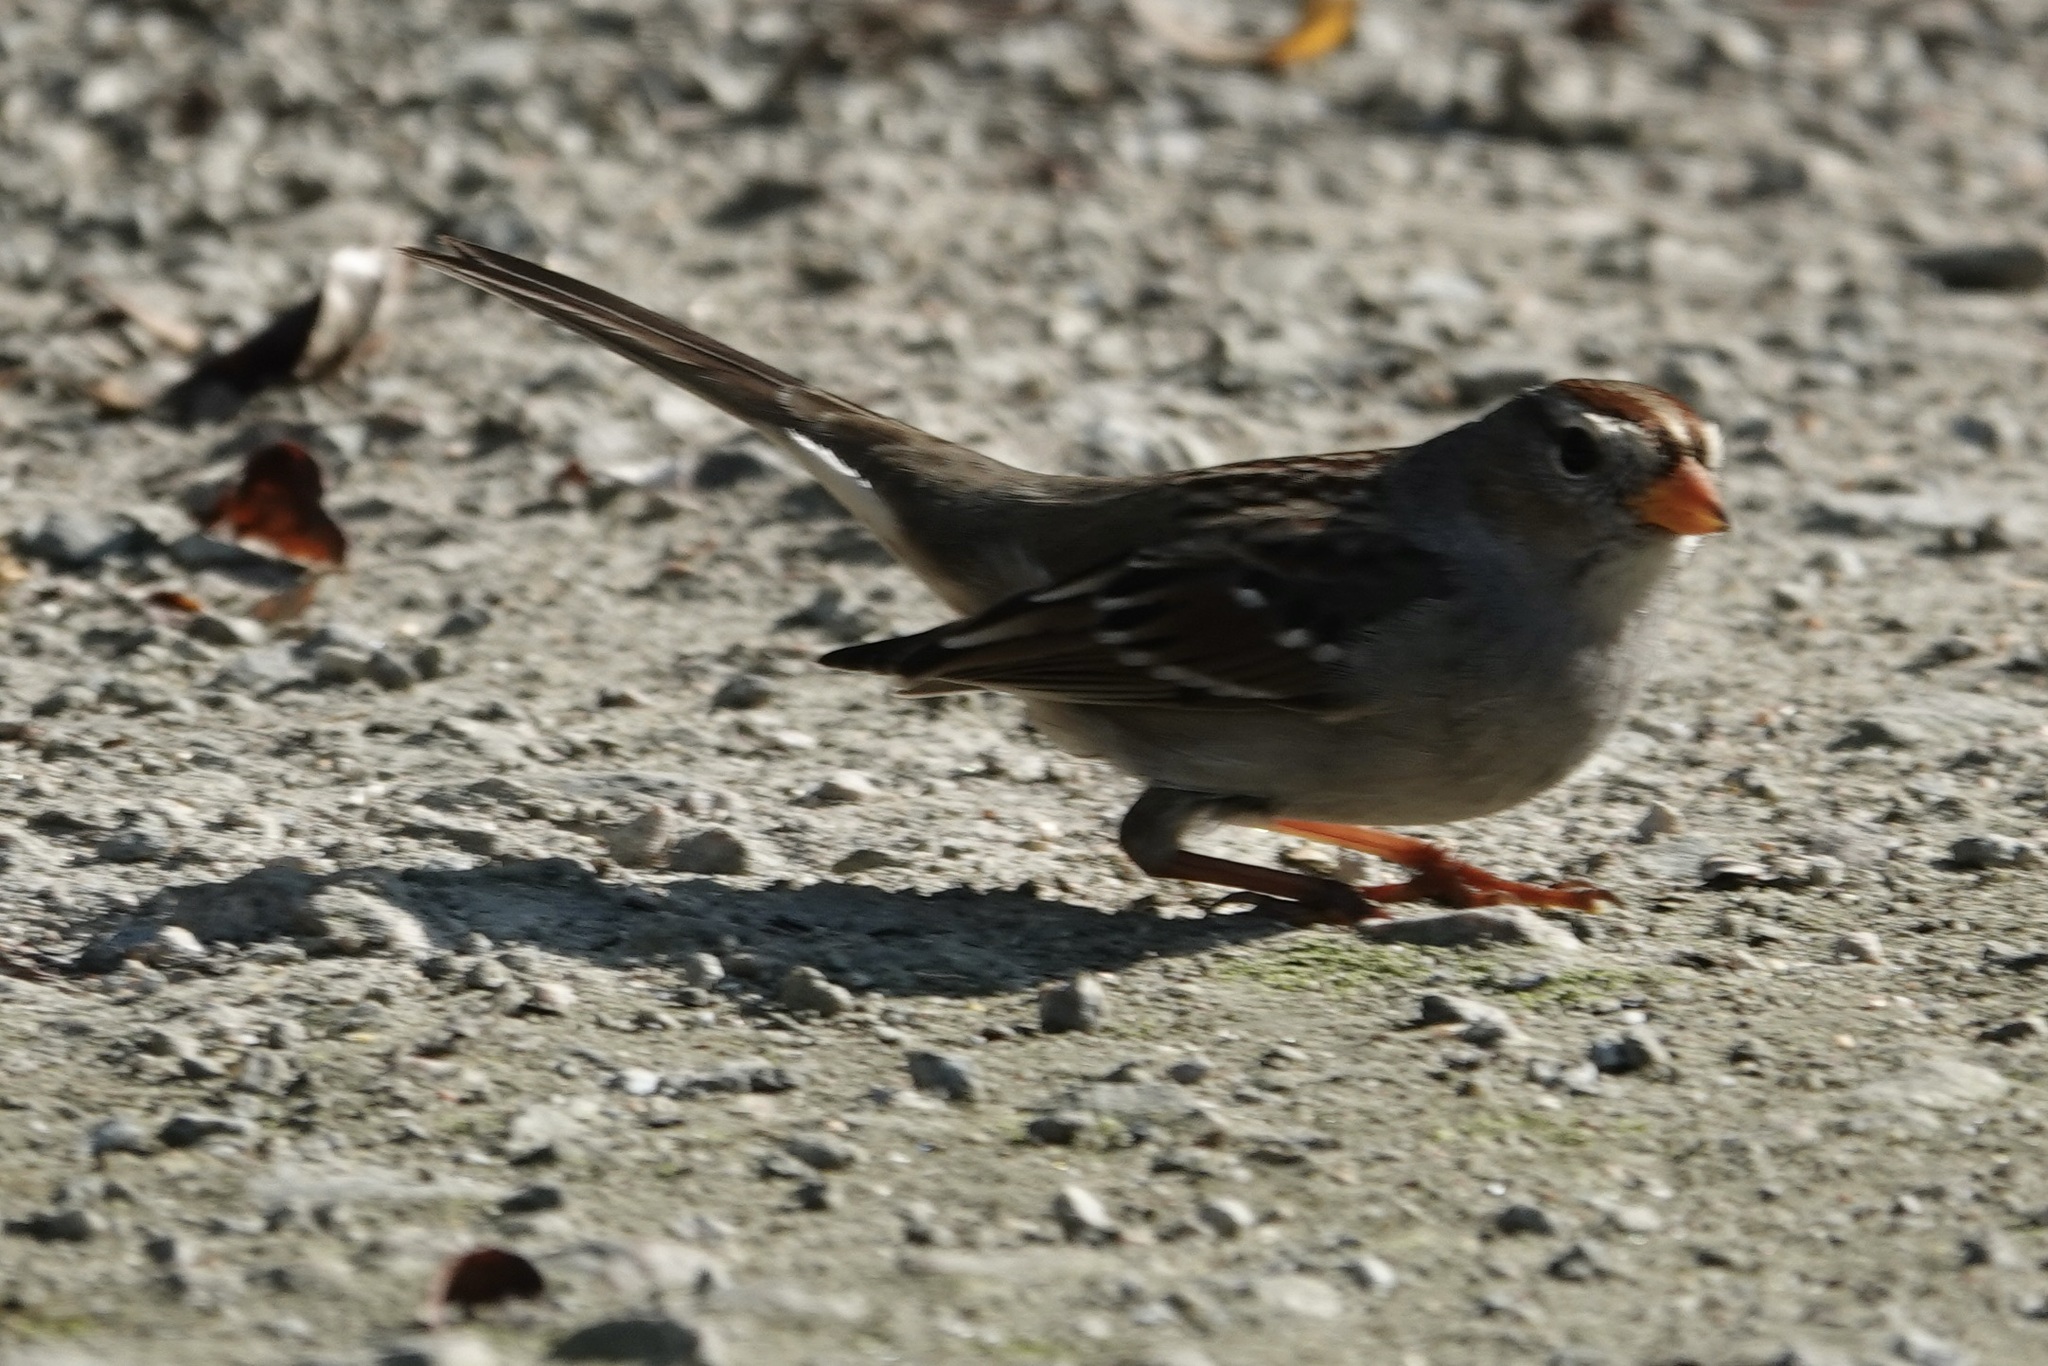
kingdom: Animalia
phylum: Chordata
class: Aves
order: Passeriformes
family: Passerellidae
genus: Zonotrichia
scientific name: Zonotrichia leucophrys
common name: White-crowned sparrow
